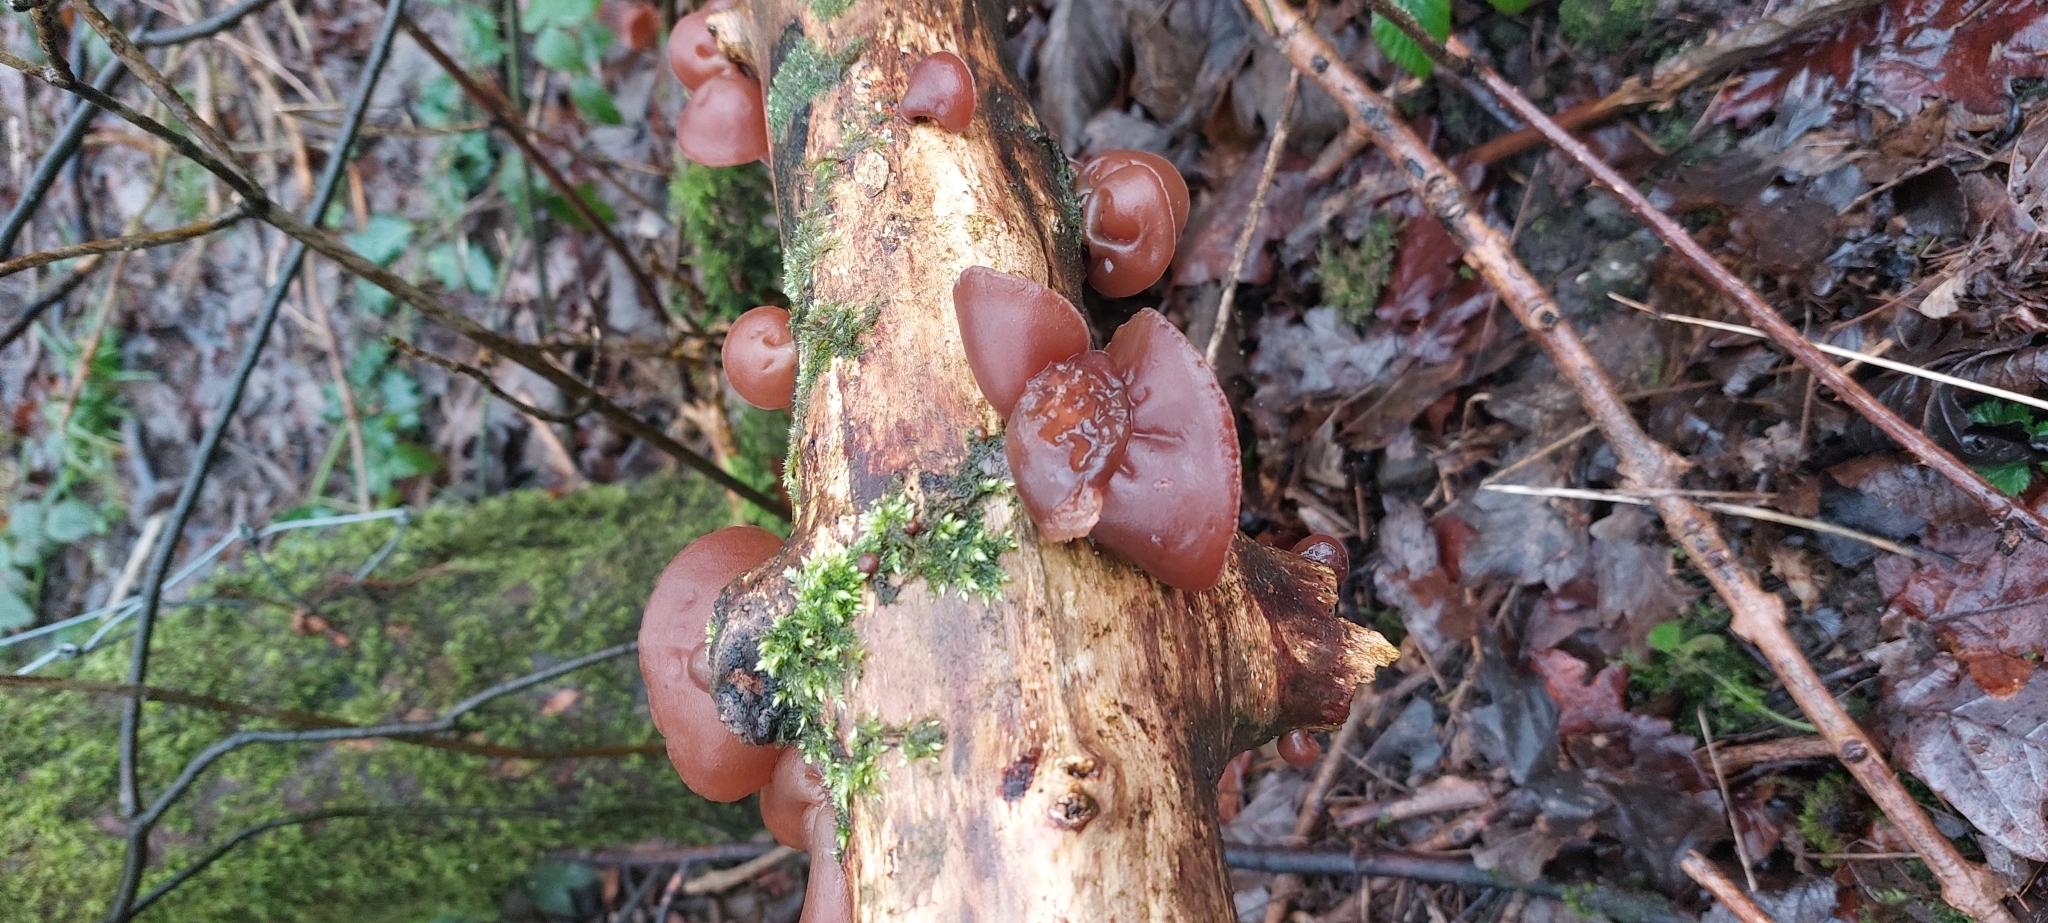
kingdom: Fungi
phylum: Basidiomycota
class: Agaricomycetes
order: Auriculariales
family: Auriculariaceae
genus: Auricularia
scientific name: Auricularia auricula-judae
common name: Jelly ear
